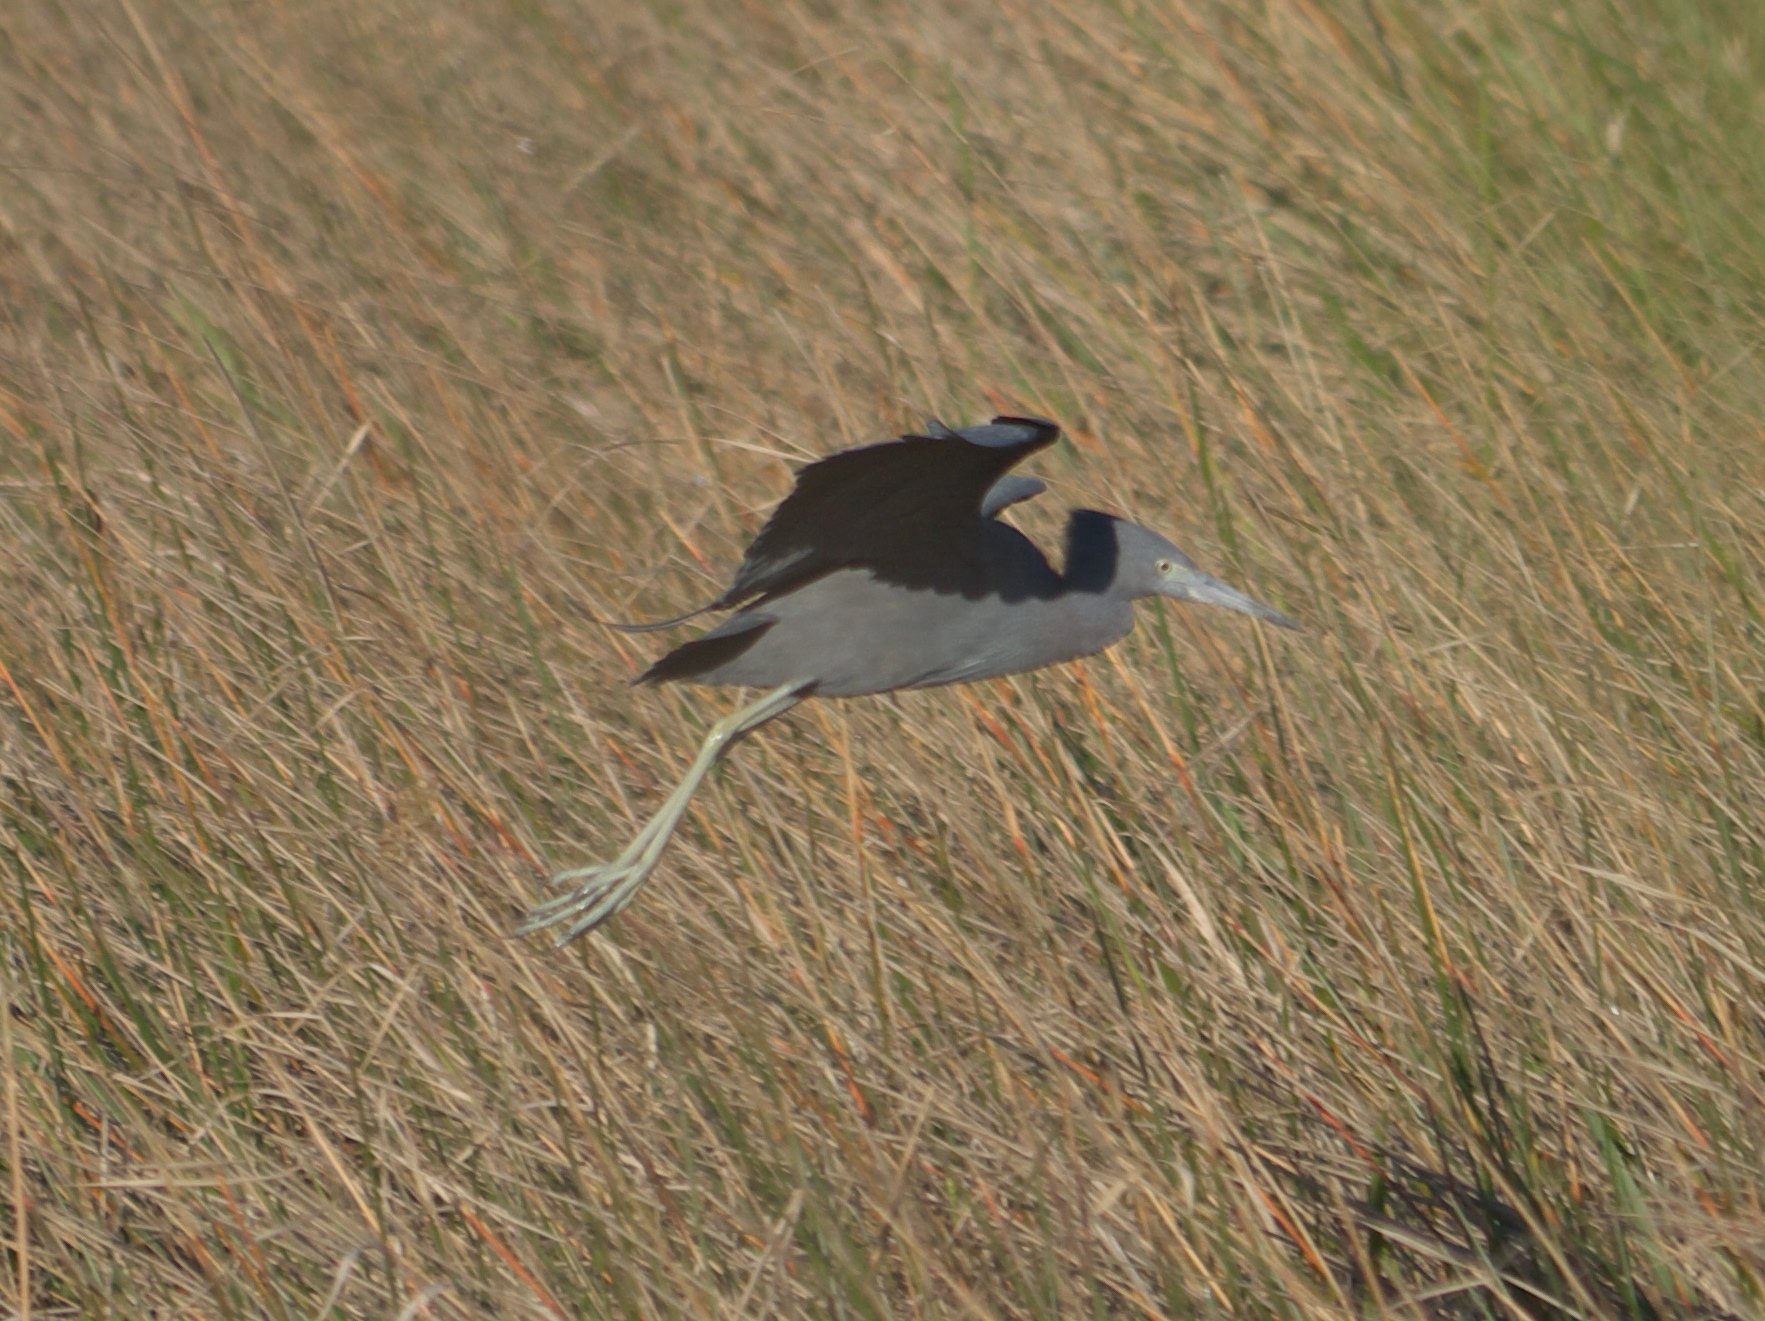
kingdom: Animalia
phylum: Chordata
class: Aves
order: Pelecaniformes
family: Ardeidae
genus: Egretta
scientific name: Egretta caerulea
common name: Little blue heron
